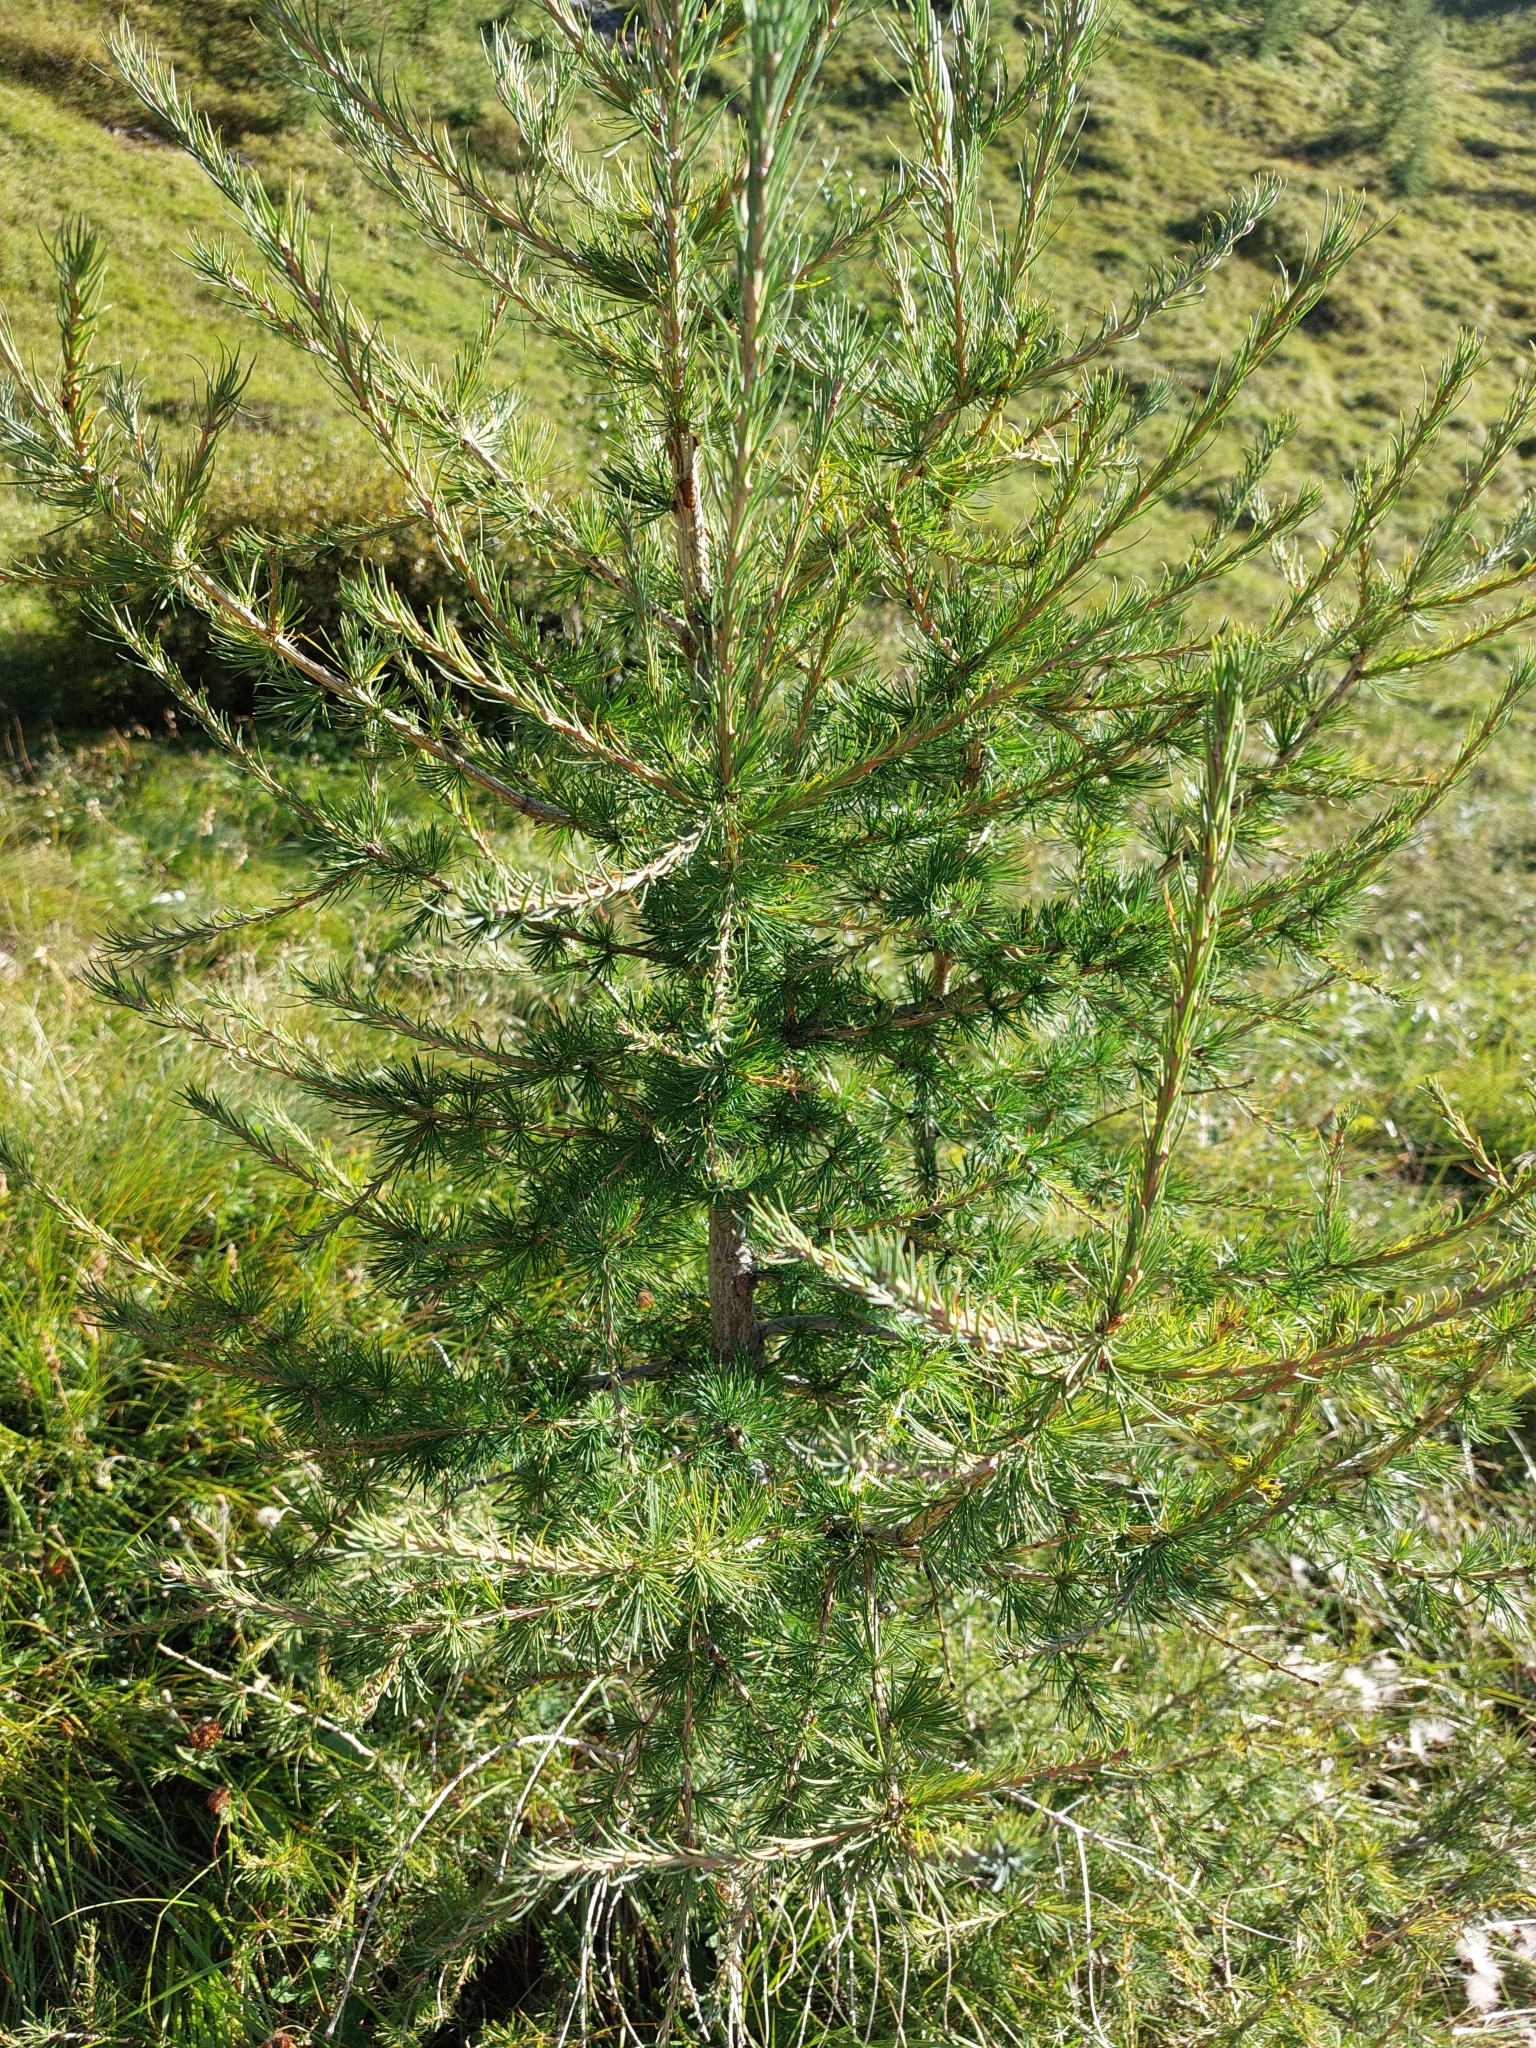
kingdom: Plantae
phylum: Tracheophyta
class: Pinopsida
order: Pinales
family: Pinaceae
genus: Larix
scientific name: Larix decidua
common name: European larch
